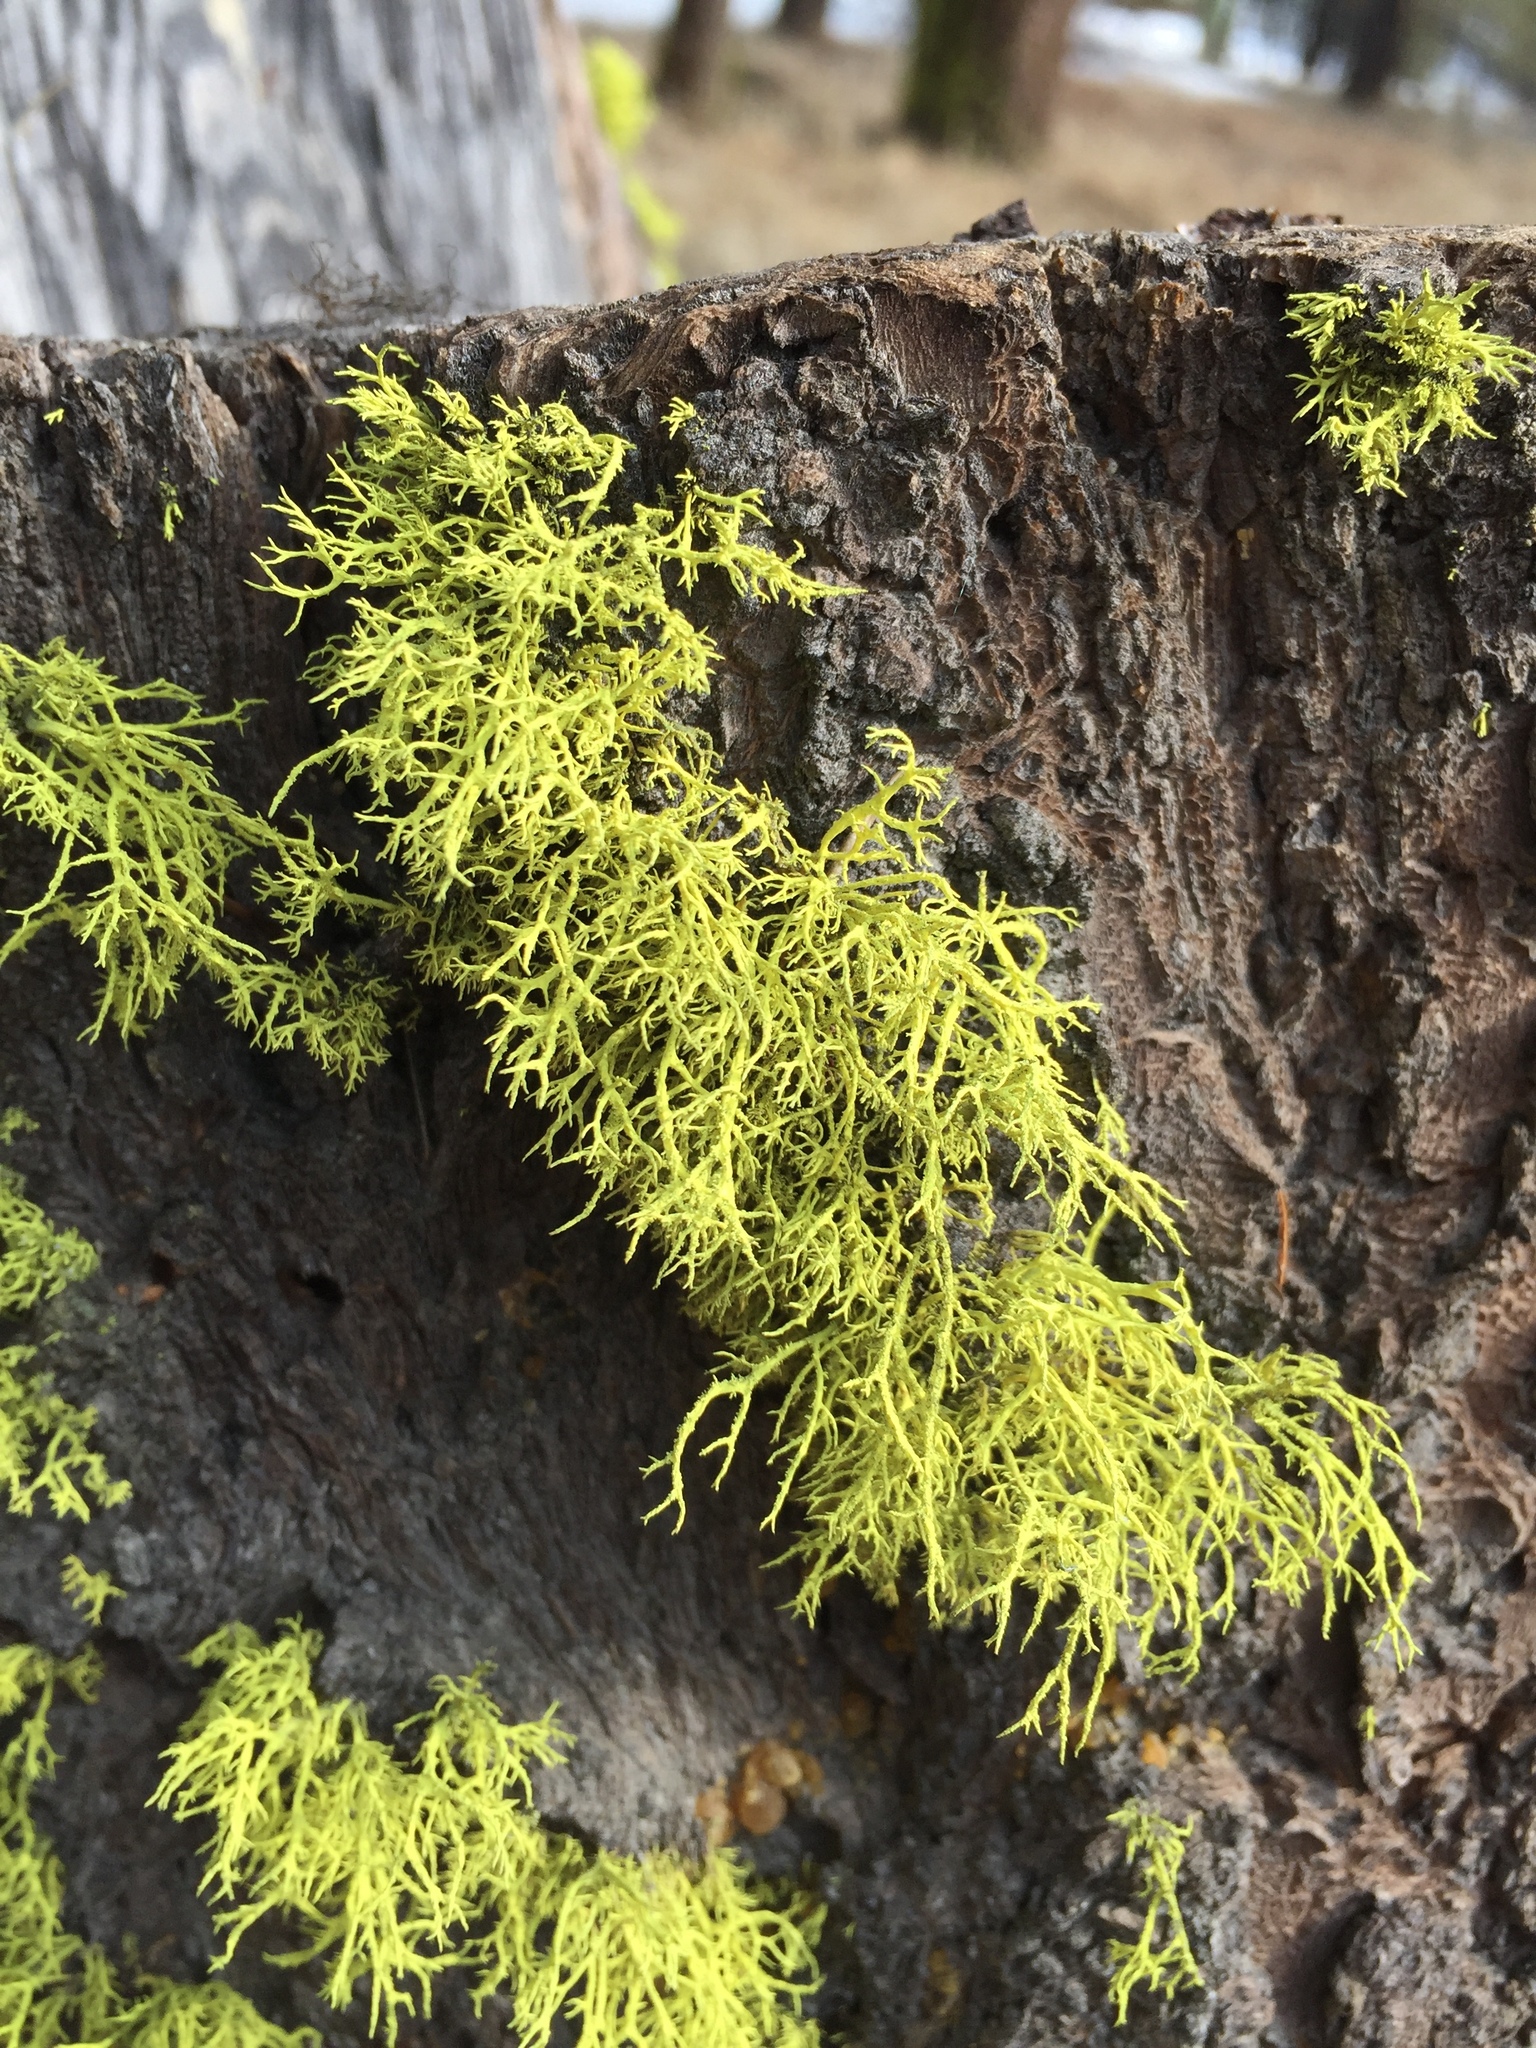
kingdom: Fungi
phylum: Ascomycota
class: Lecanoromycetes
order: Lecanorales
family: Parmeliaceae
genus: Letharia
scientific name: Letharia vulpina
